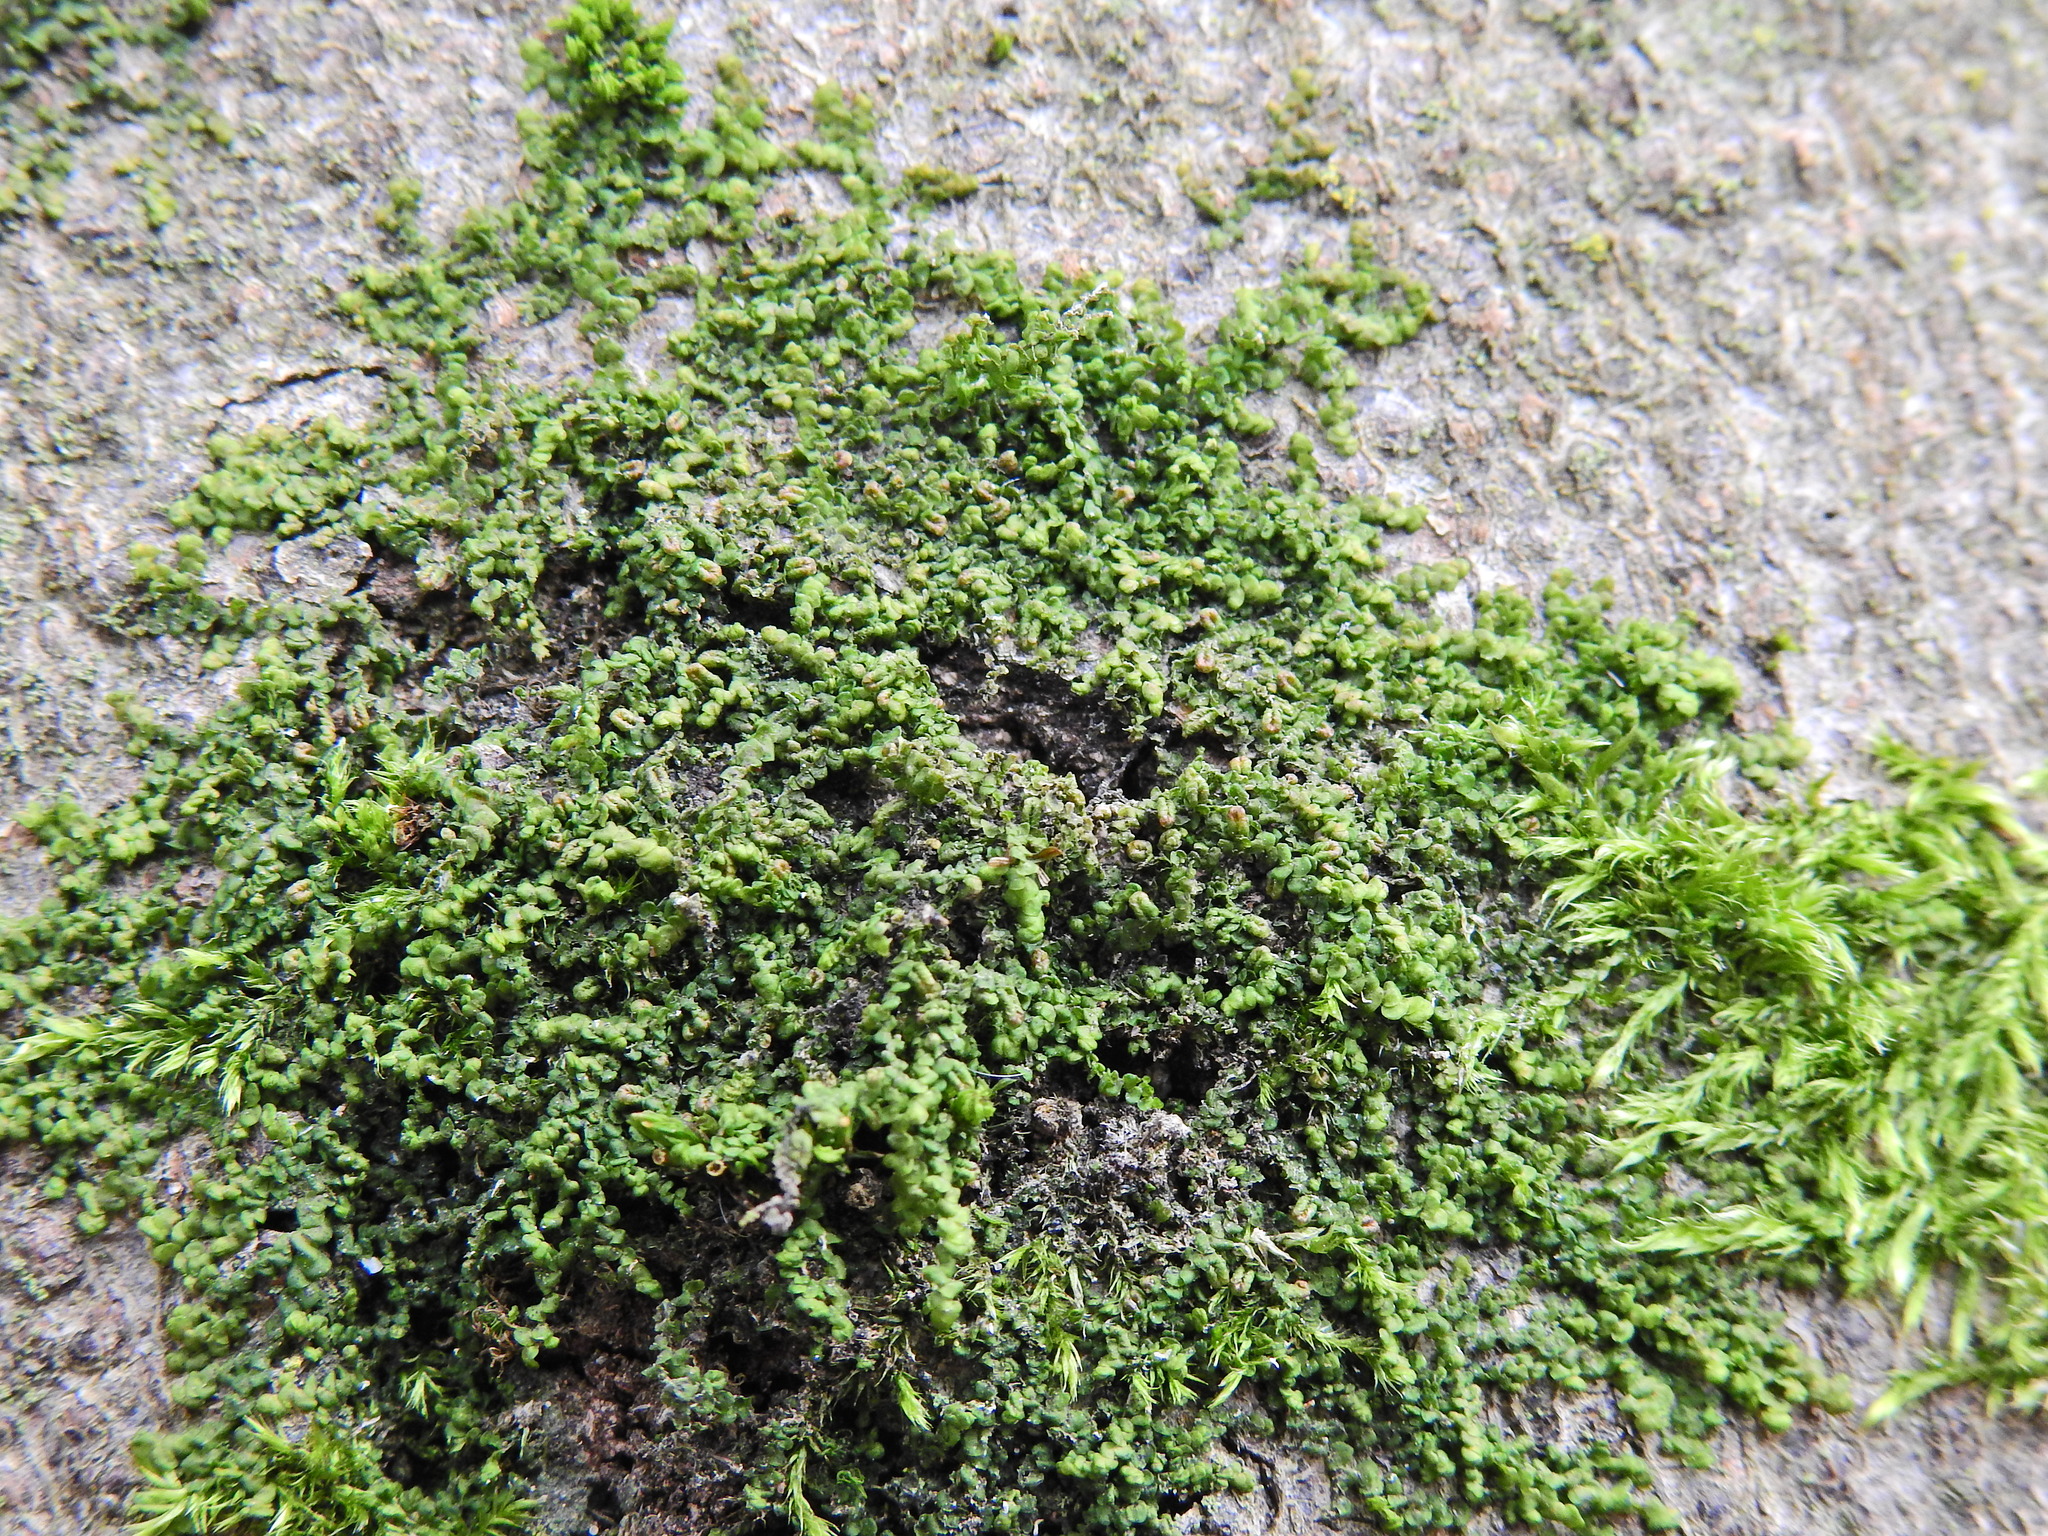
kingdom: Plantae
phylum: Marchantiophyta
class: Jungermanniopsida
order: Porellales
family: Frullaniaceae
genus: Frullania
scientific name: Frullania dilatata
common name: Dilated scalewort
